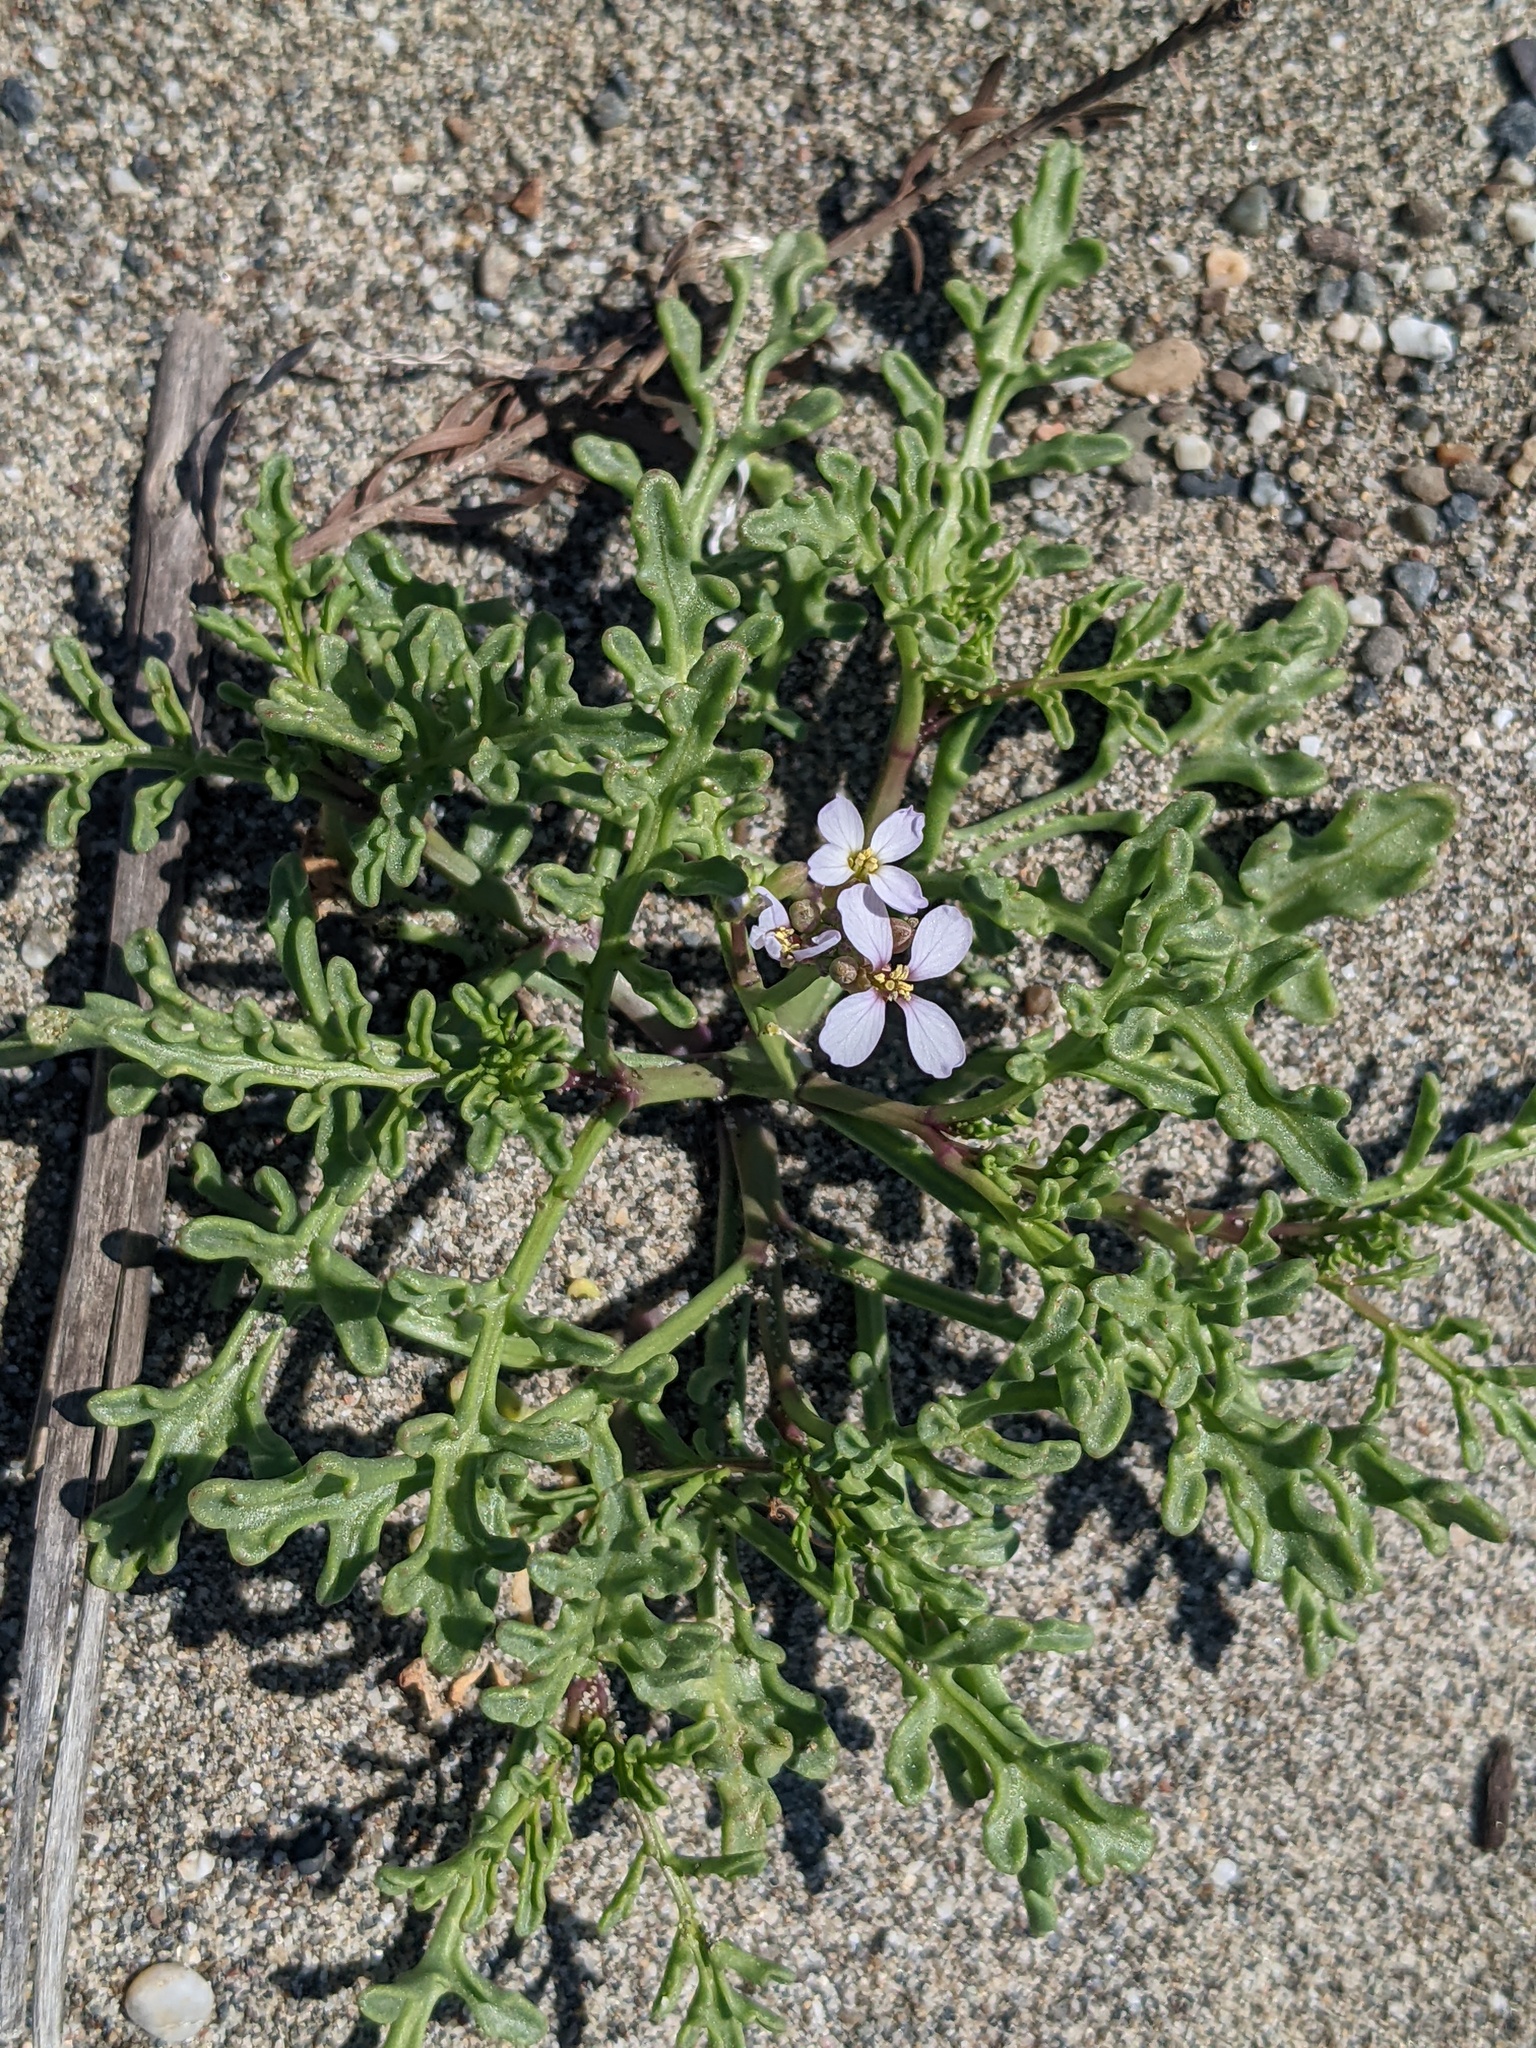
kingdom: Plantae
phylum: Tracheophyta
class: Magnoliopsida
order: Brassicales
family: Brassicaceae
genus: Cakile
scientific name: Cakile maritima
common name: Sea rocket
